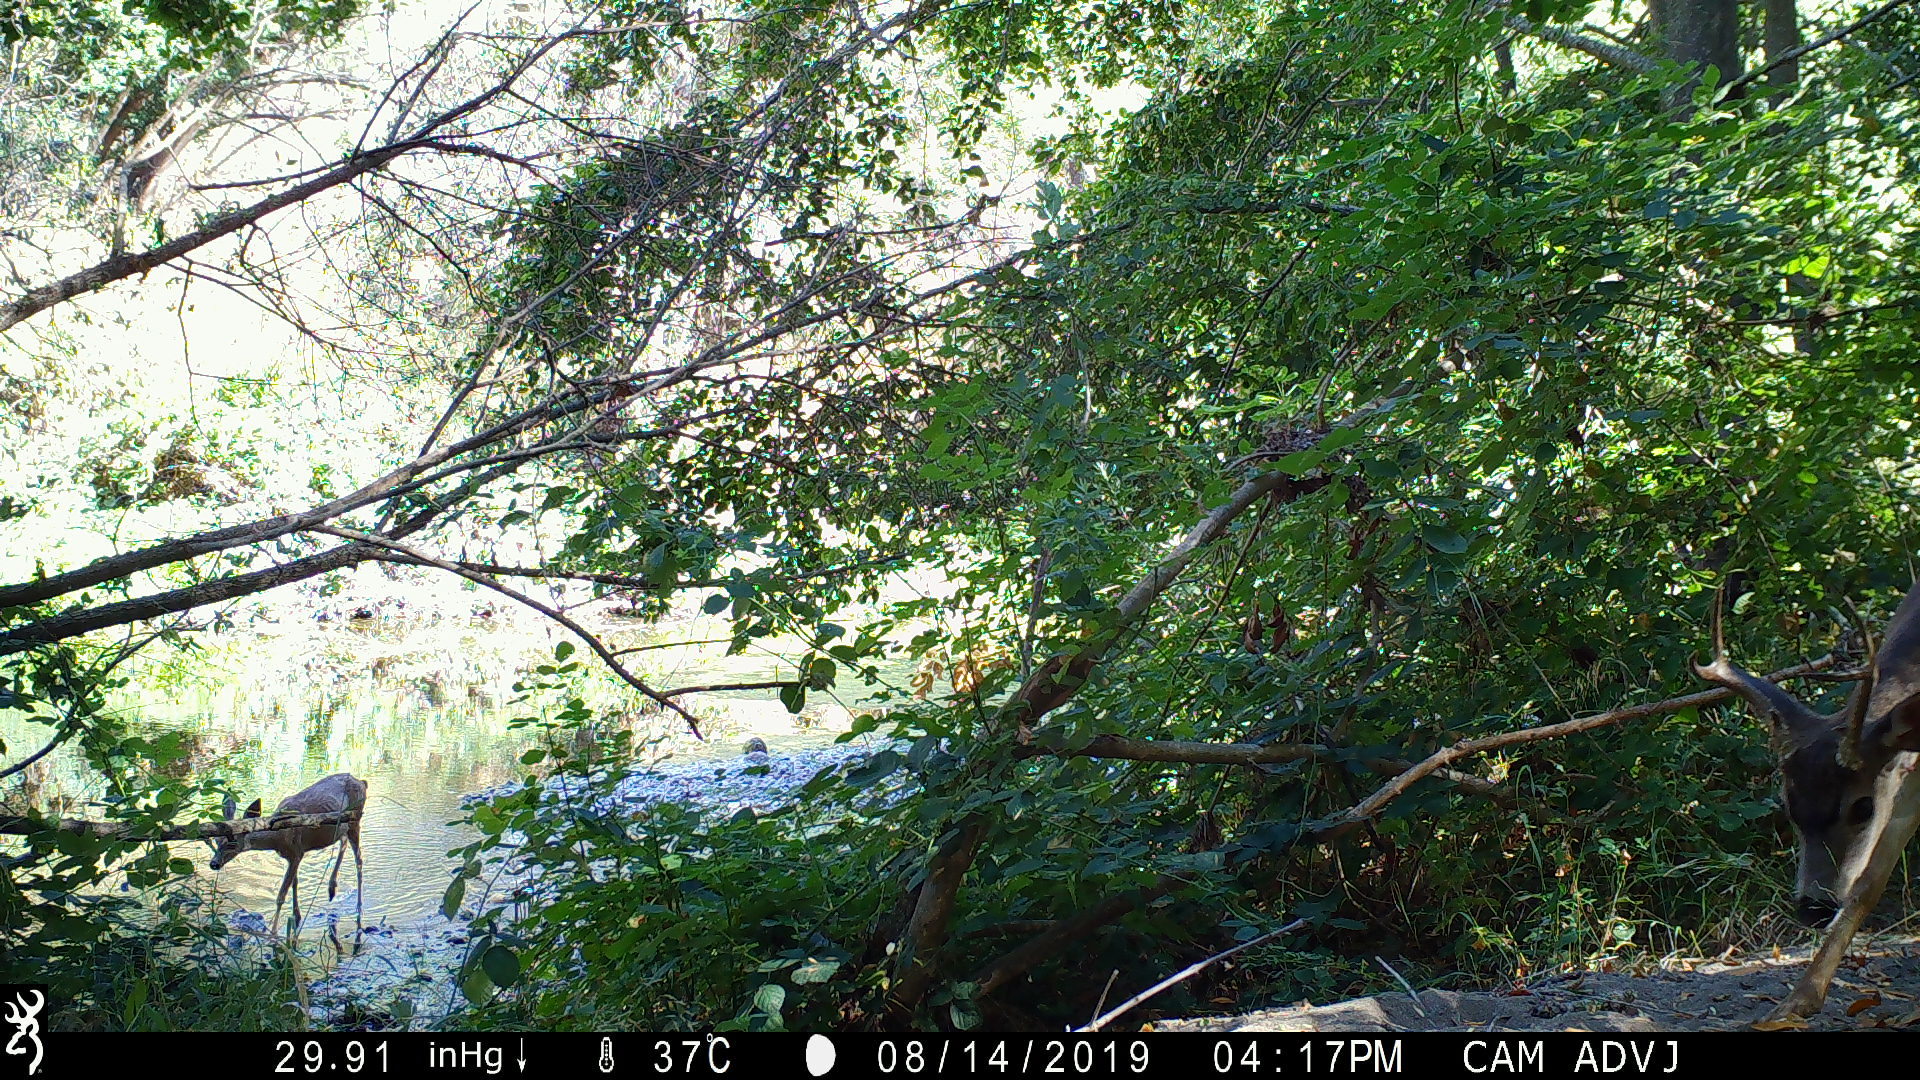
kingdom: Animalia
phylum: Chordata
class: Mammalia
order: Artiodactyla
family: Cervidae
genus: Odocoileus
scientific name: Odocoileus hemionus
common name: Mule deer
